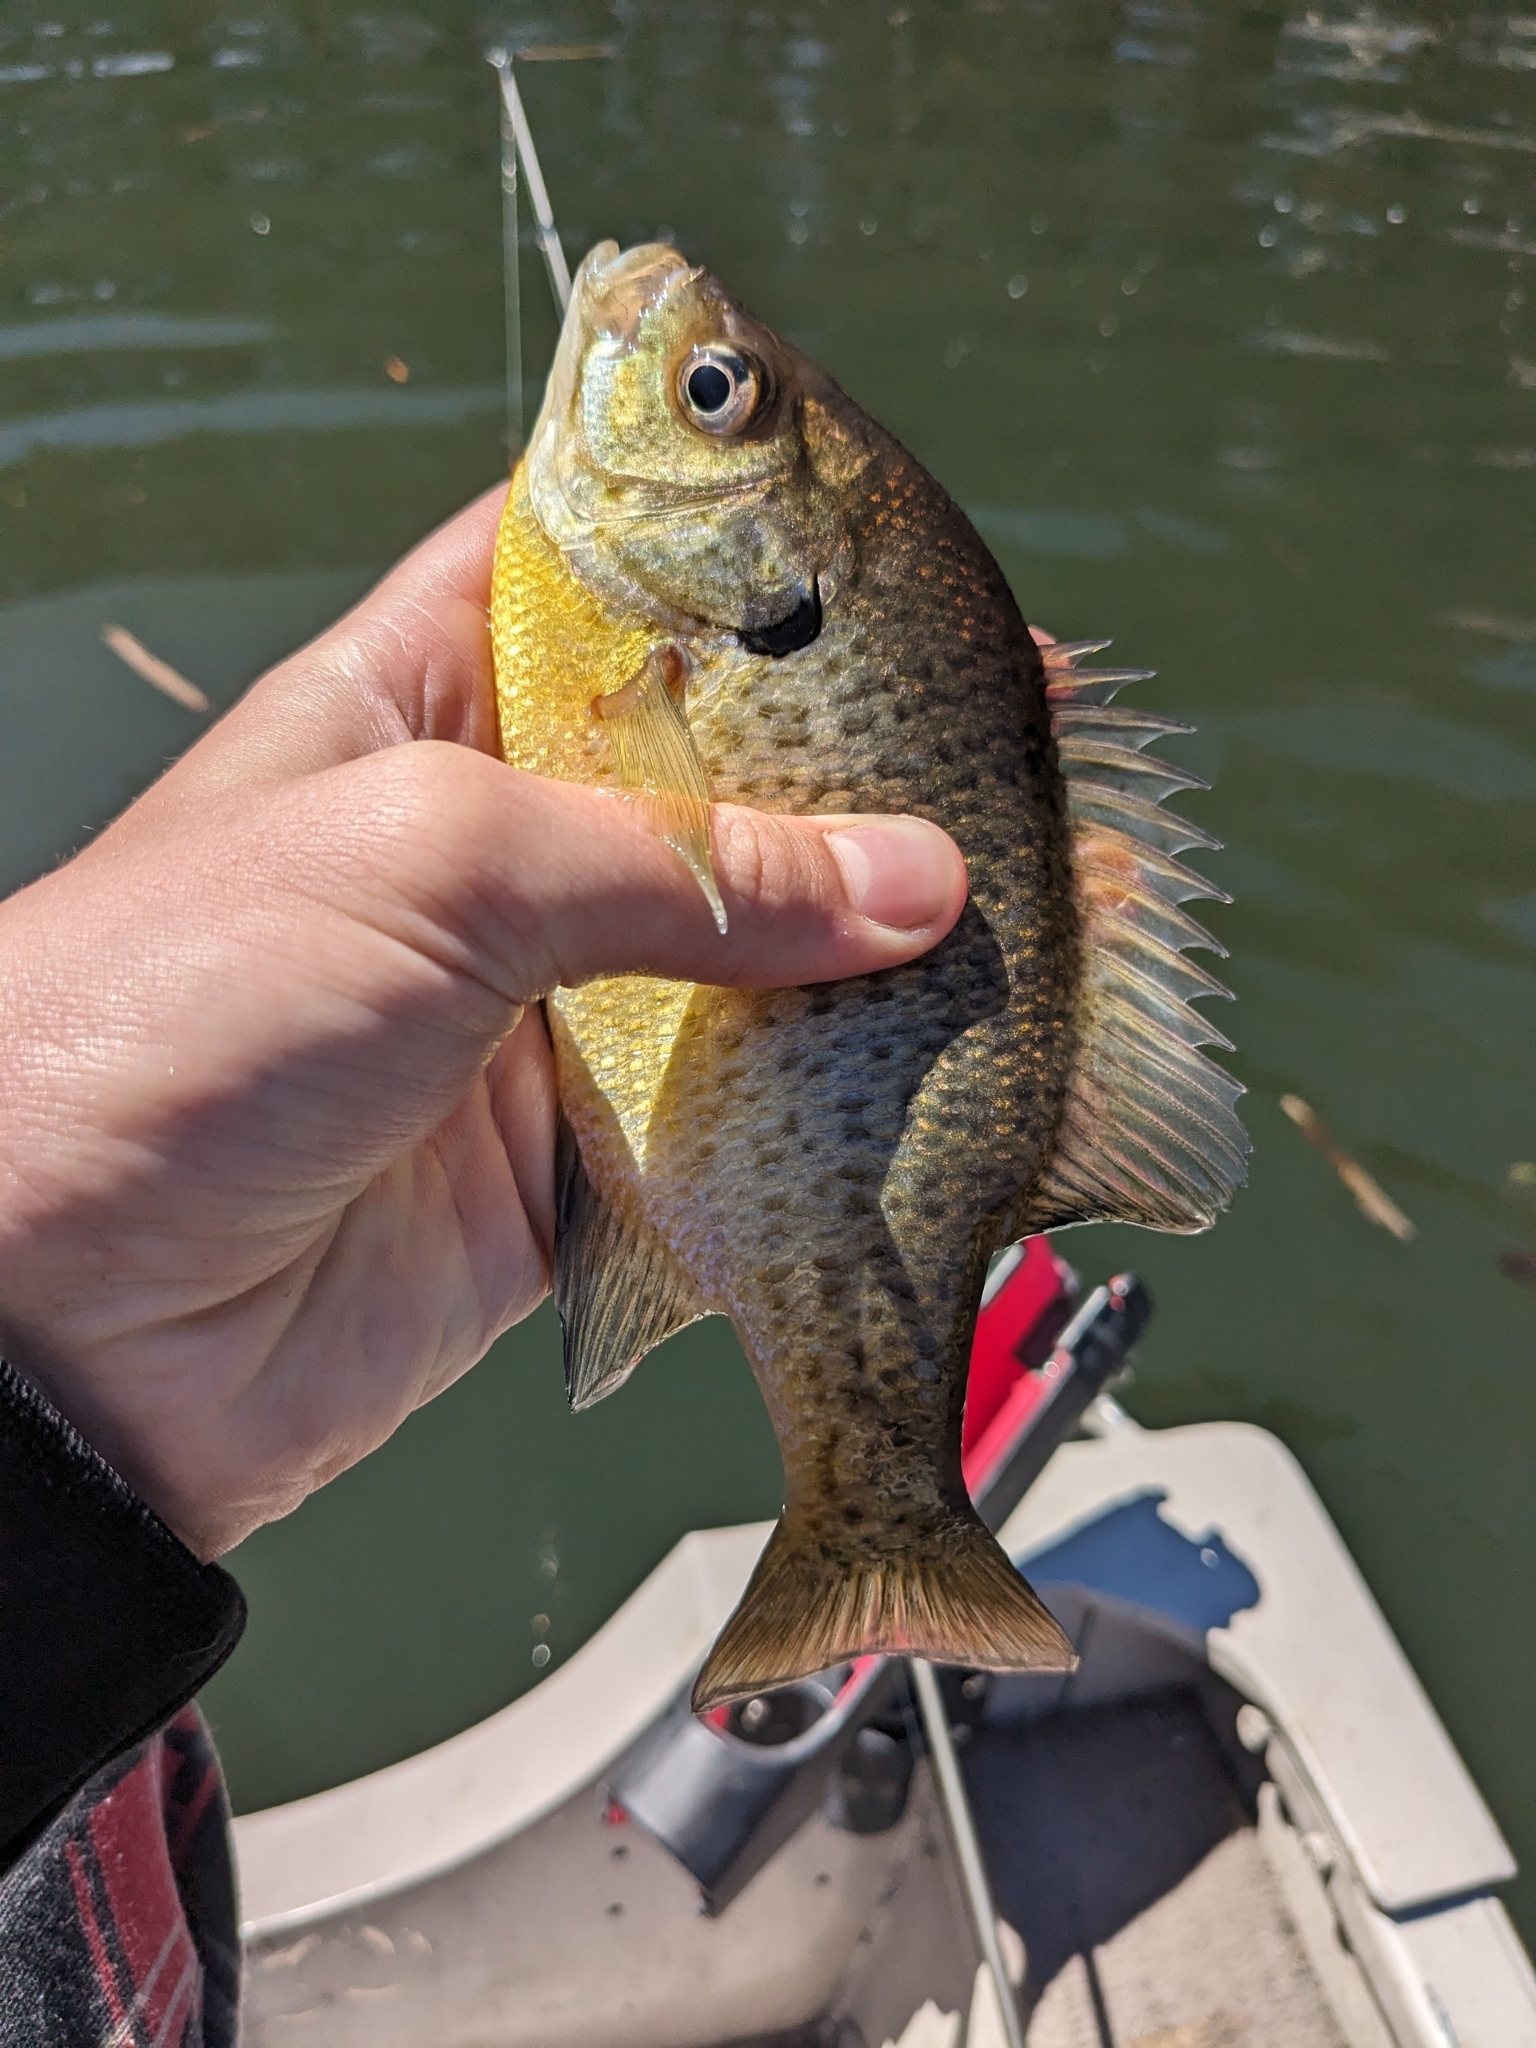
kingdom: Animalia
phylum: Chordata
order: Perciformes
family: Centrarchidae
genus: Lepomis
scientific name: Lepomis macrochirus
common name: Bluegill
